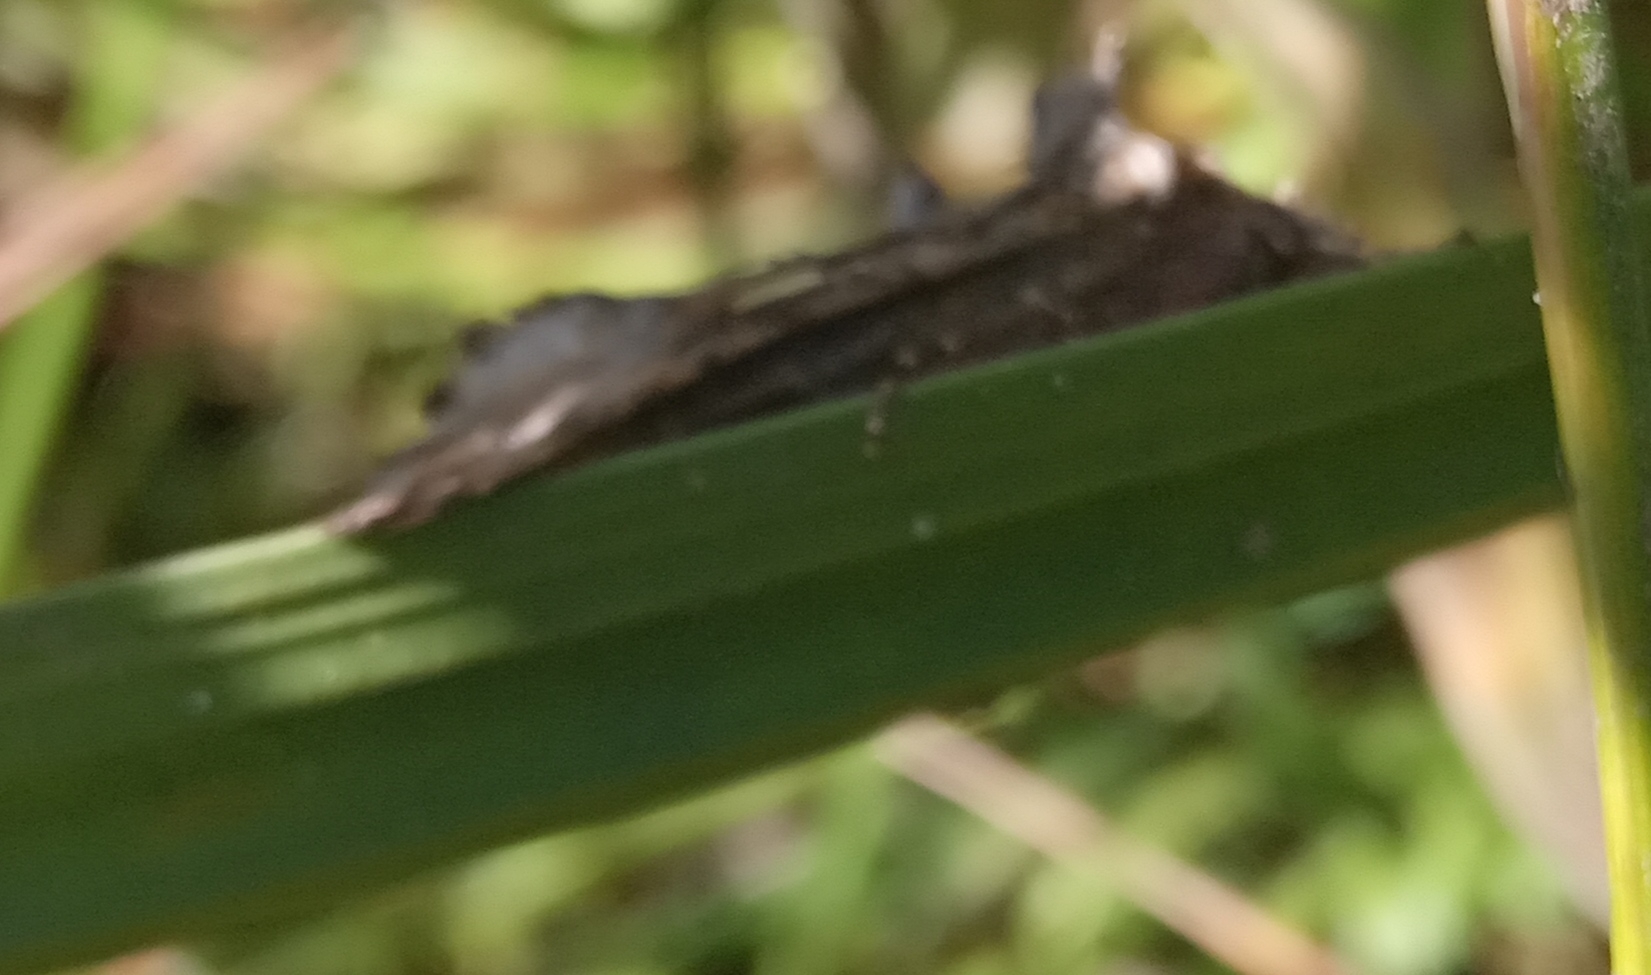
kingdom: Animalia
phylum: Arthropoda
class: Insecta
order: Lepidoptera
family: Noctuidae
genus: Autographa
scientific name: Autographa gamma
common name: Silver y
